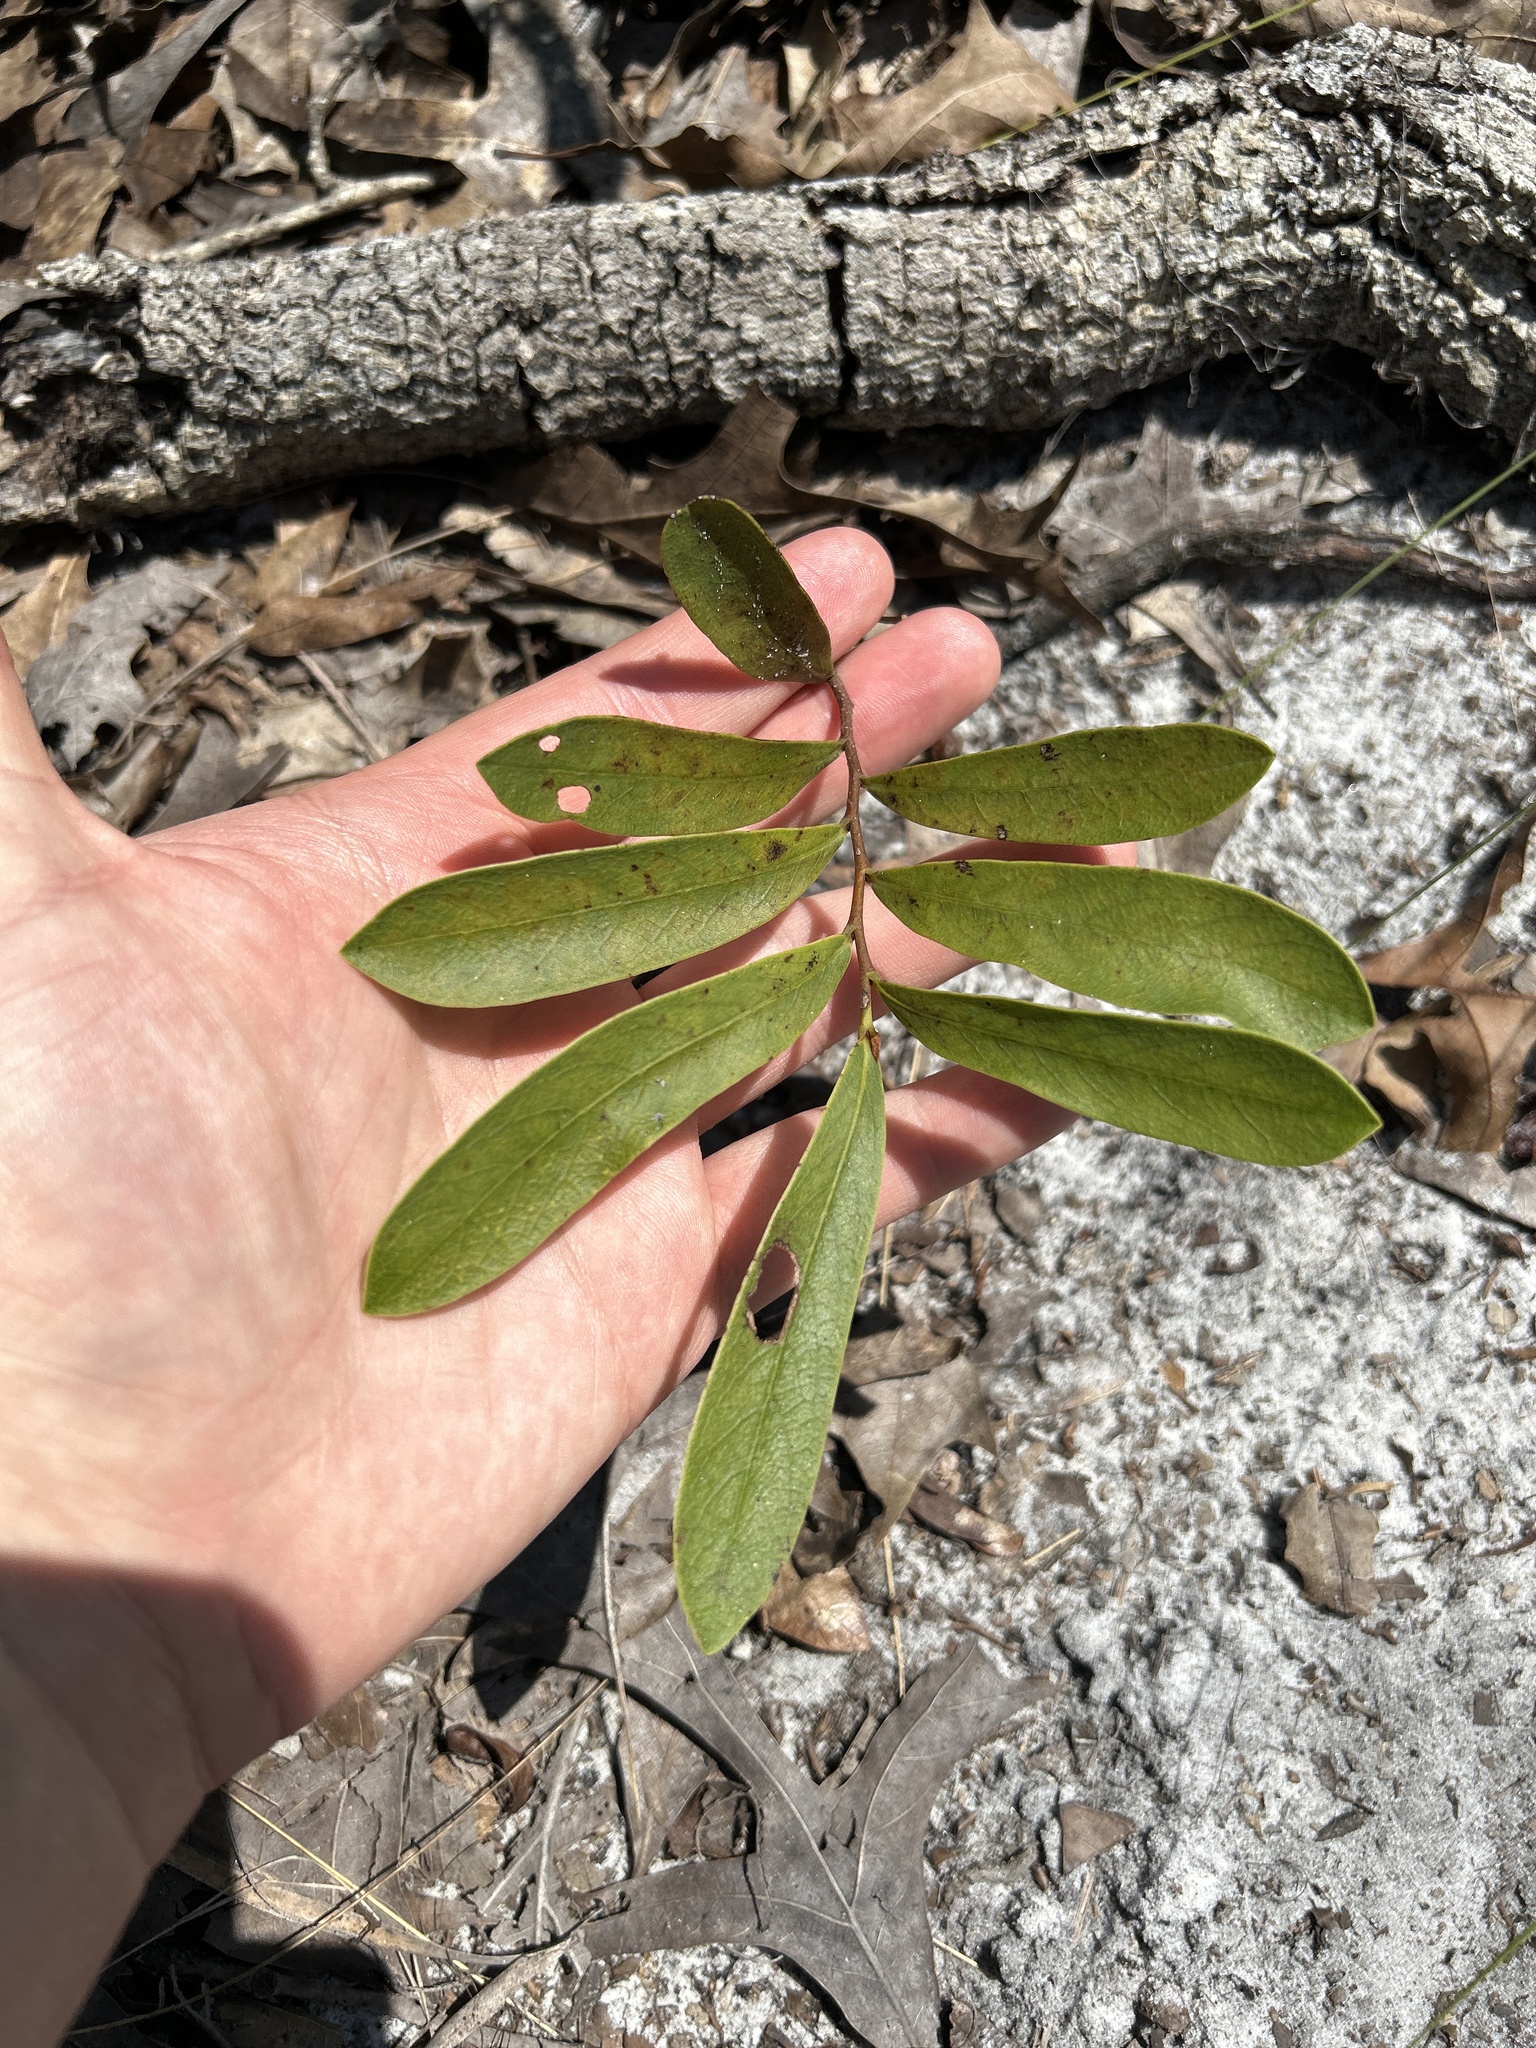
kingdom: Plantae
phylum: Tracheophyta
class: Magnoliopsida
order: Magnoliales
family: Annonaceae
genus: Asimina
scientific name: Asimina pygmaea
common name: Dwarf pawpaw
